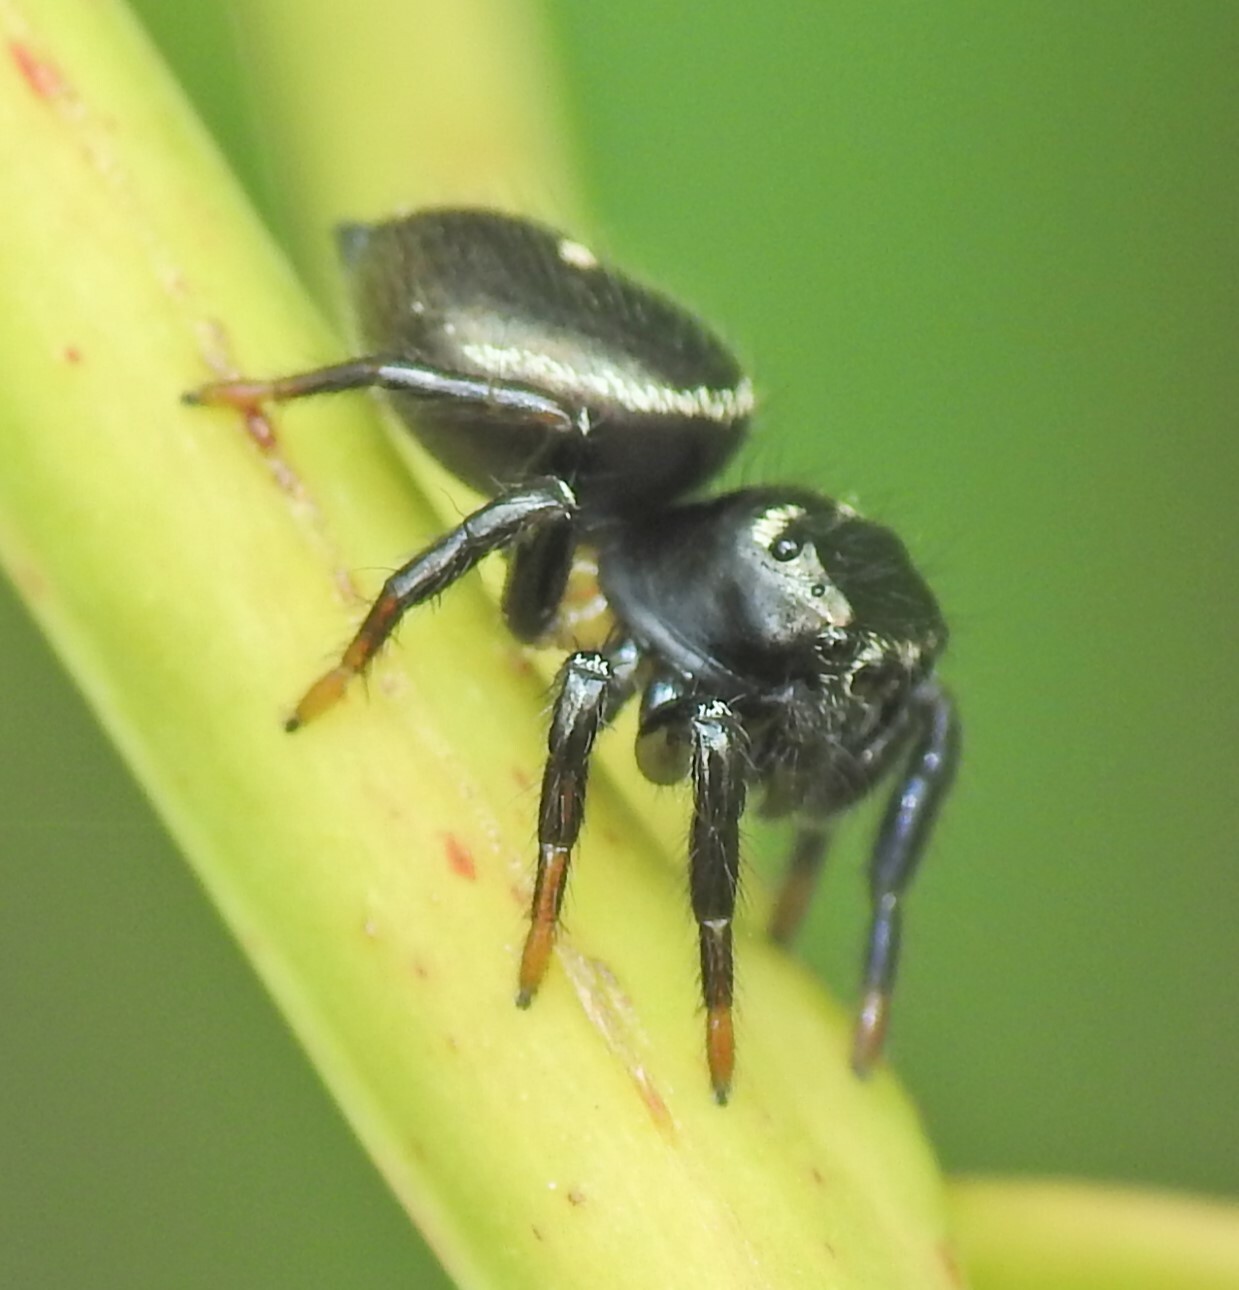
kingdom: Animalia
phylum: Arthropoda
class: Arachnida
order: Araneae
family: Salticidae
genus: Zenodorus
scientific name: Zenodorus orbiculatus
